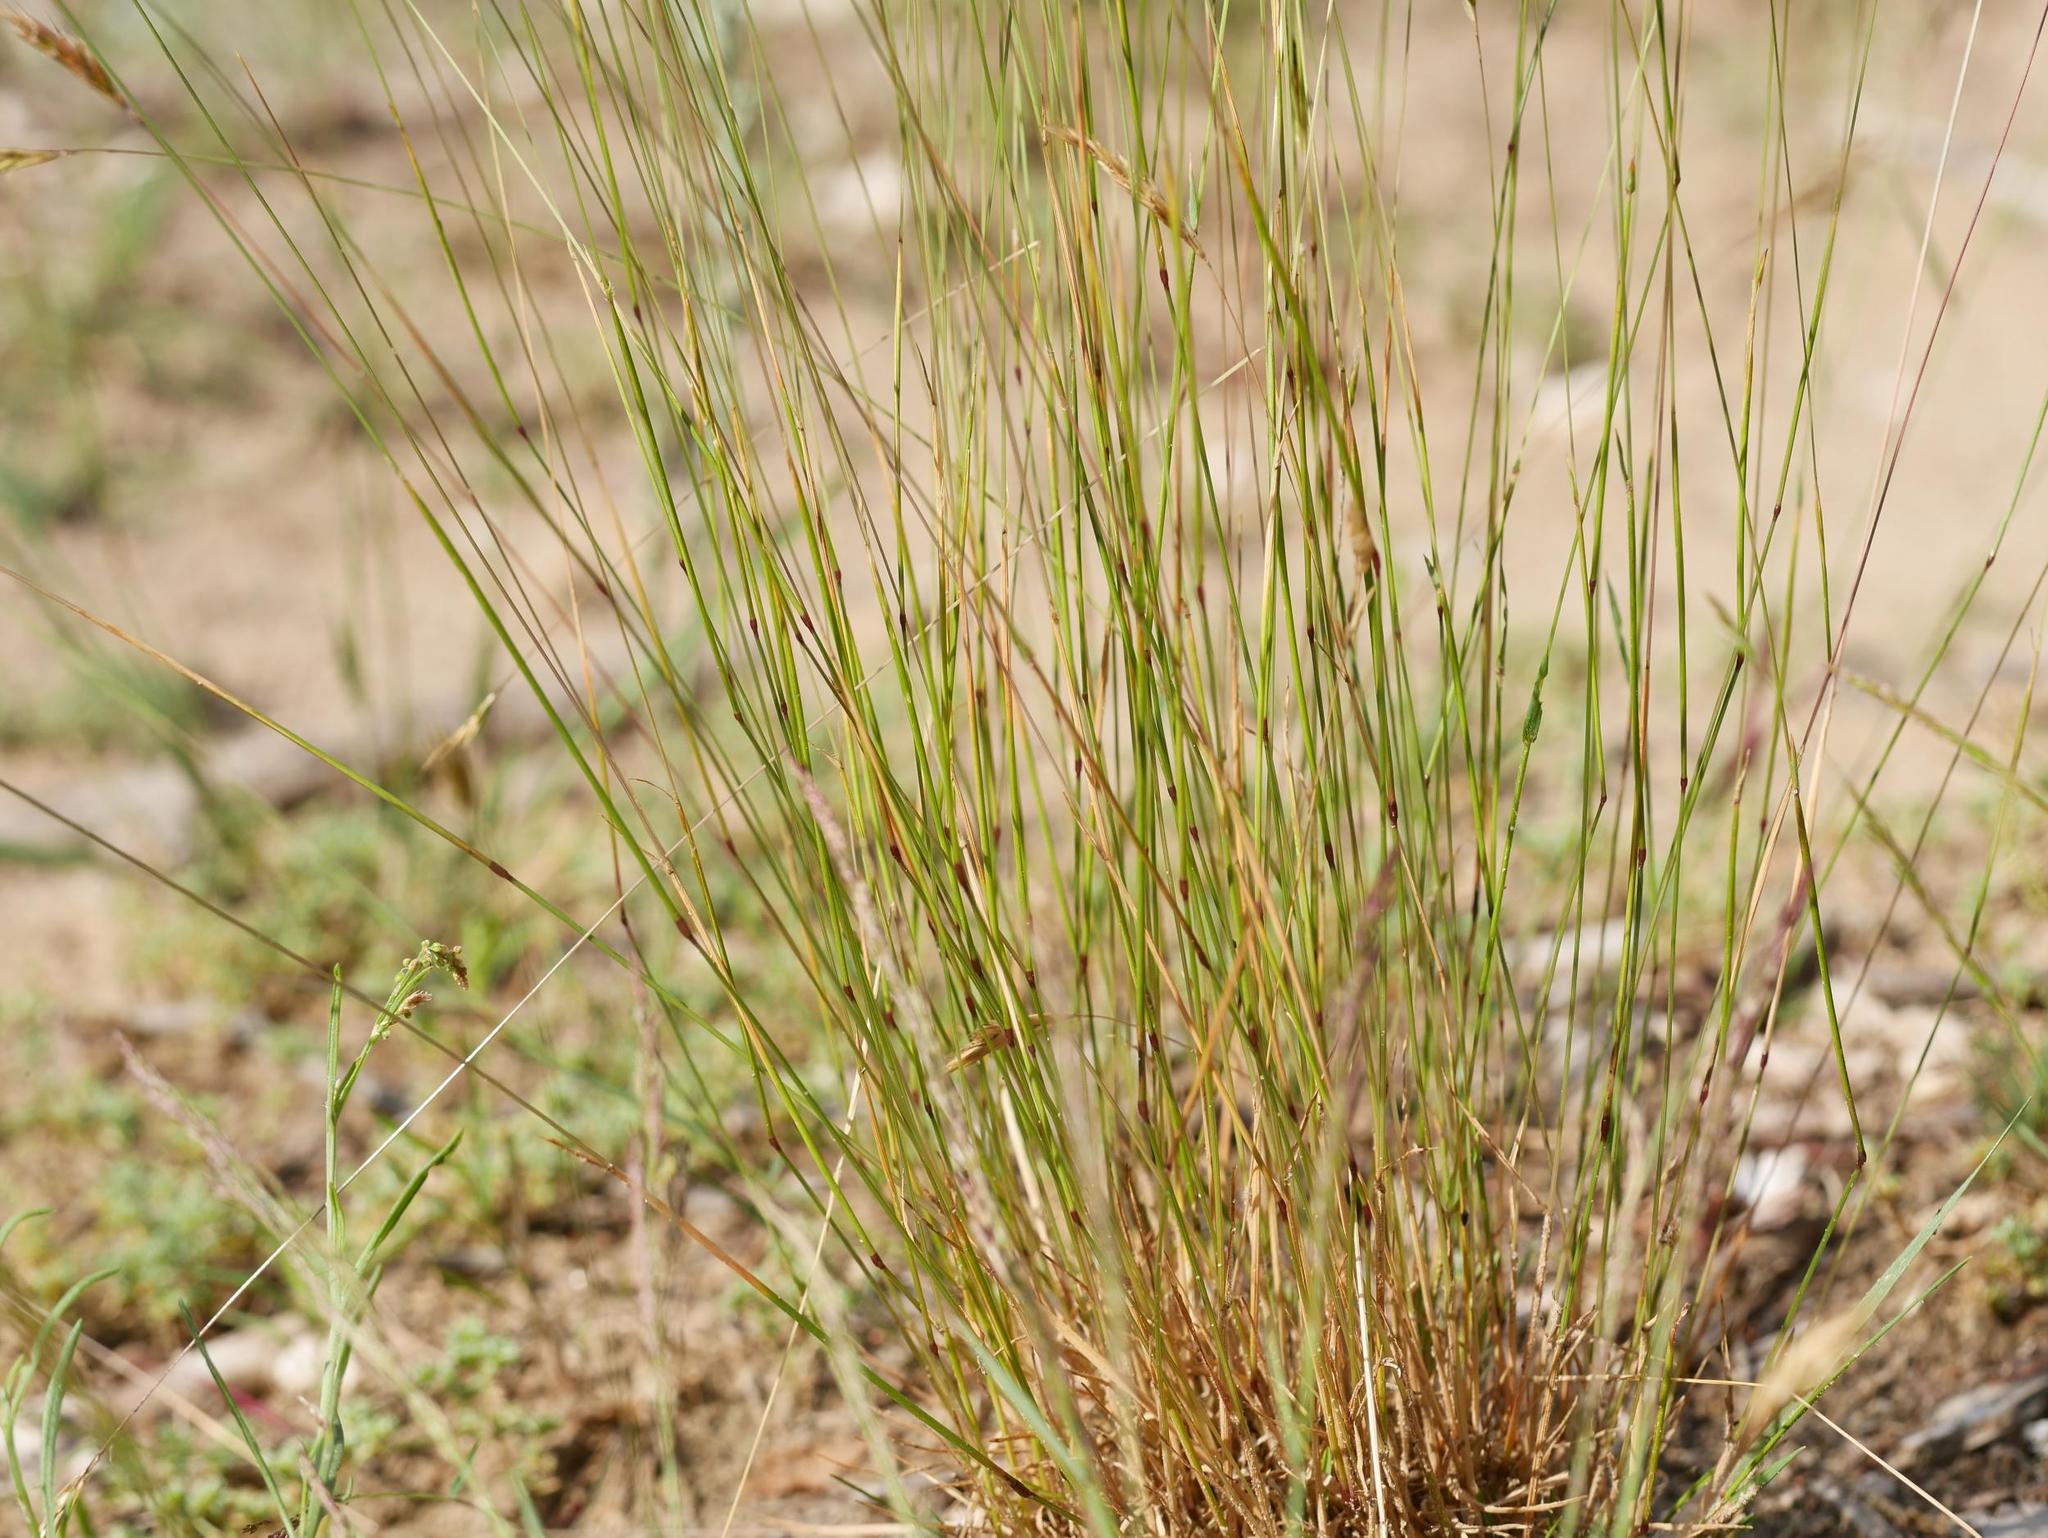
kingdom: Plantae
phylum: Tracheophyta
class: Liliopsida
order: Poales
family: Poaceae
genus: Anthoxanthum
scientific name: Anthoxanthum odoratum
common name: Sweet vernalgrass
